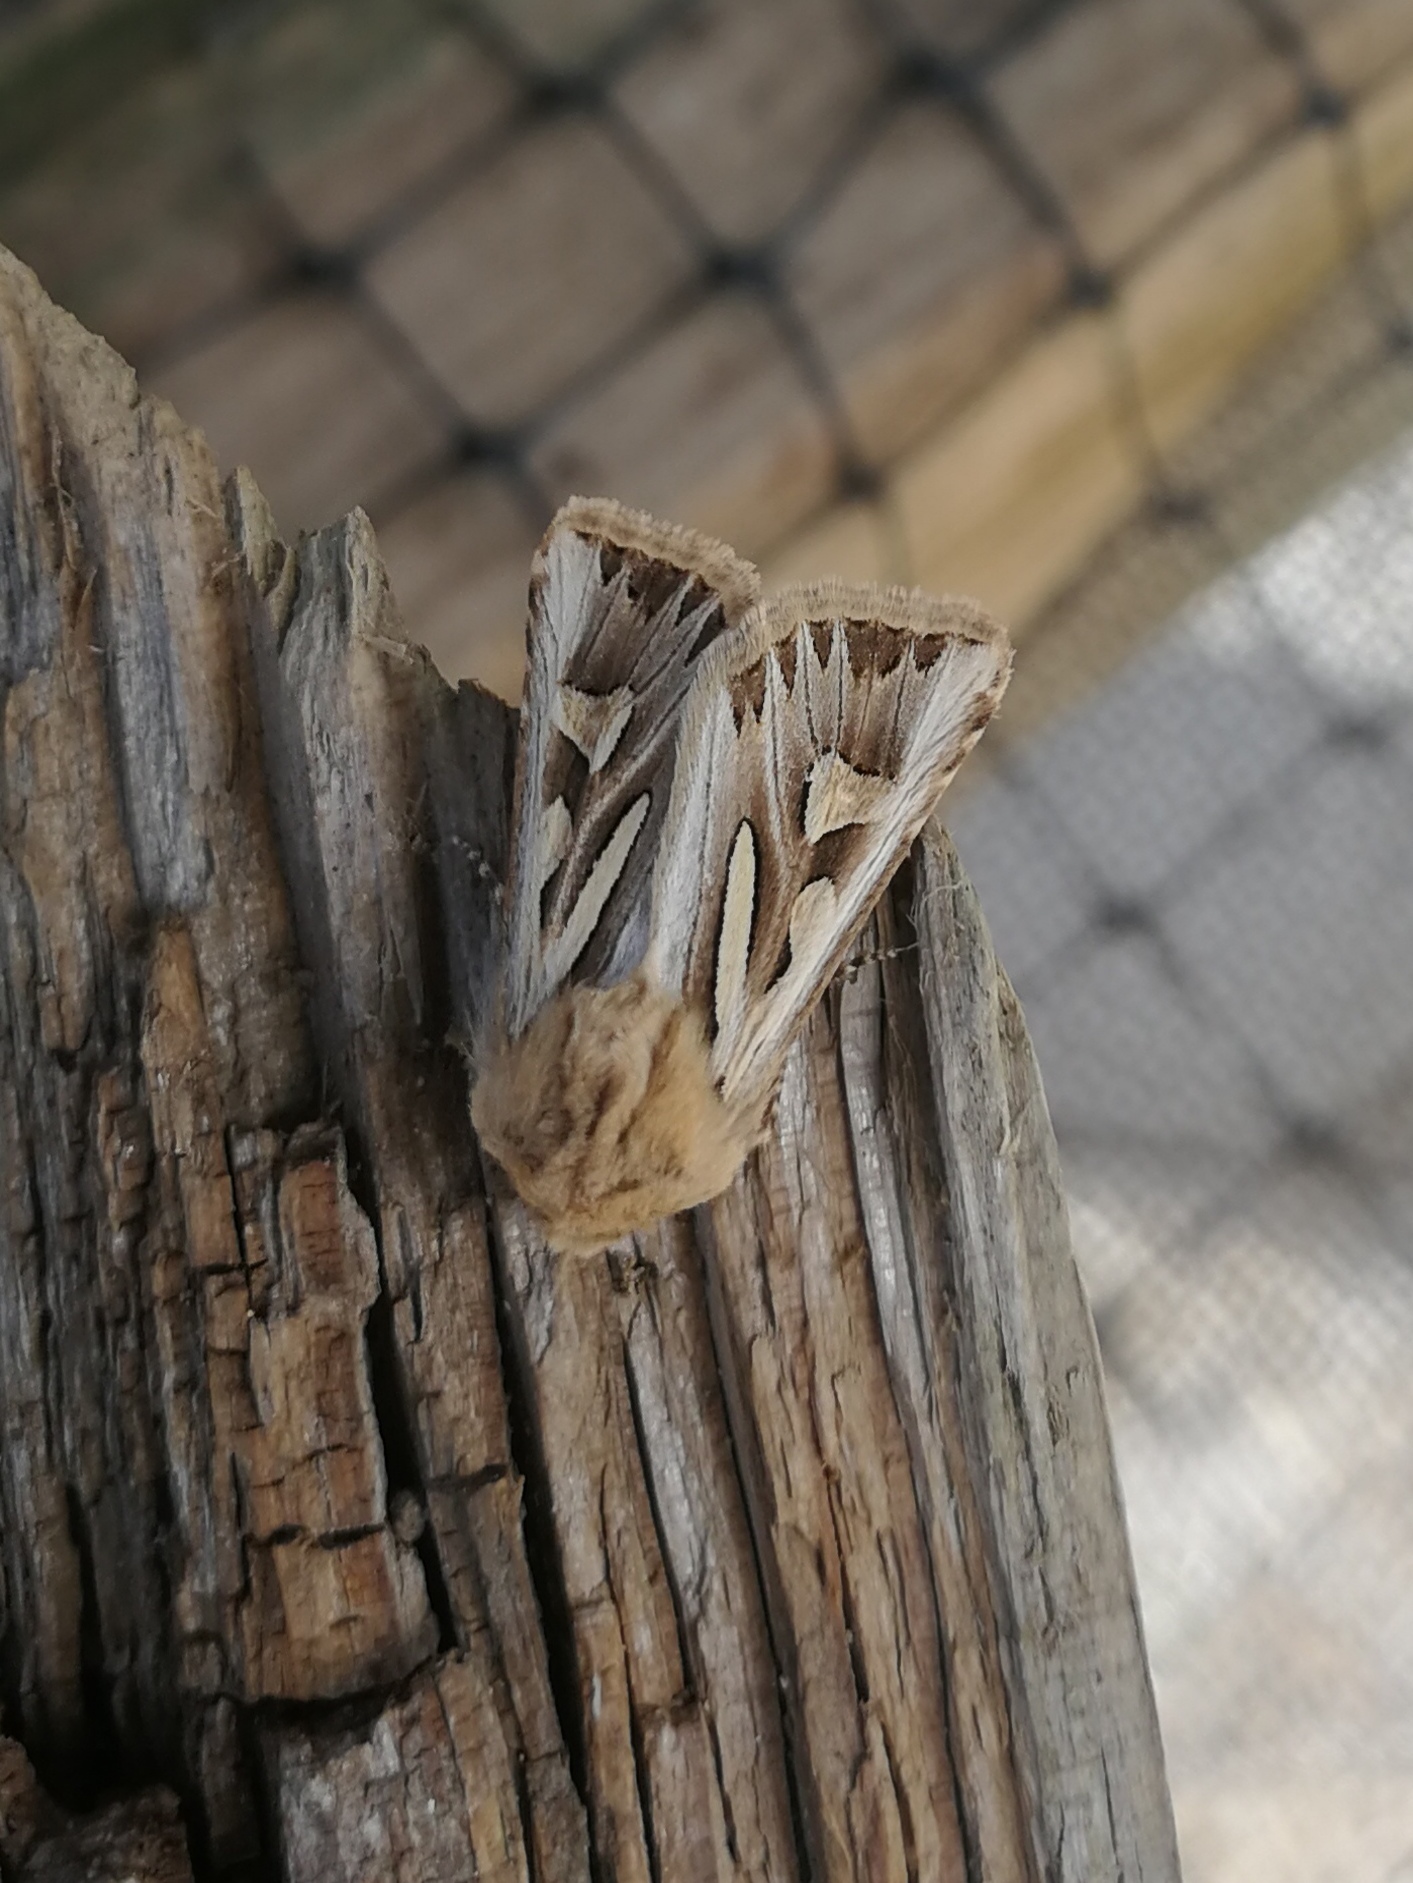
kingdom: Animalia
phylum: Arthropoda
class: Insecta
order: Lepidoptera
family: Noctuidae
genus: Eucoptocnemis
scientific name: Eucoptocnemis optabilis
